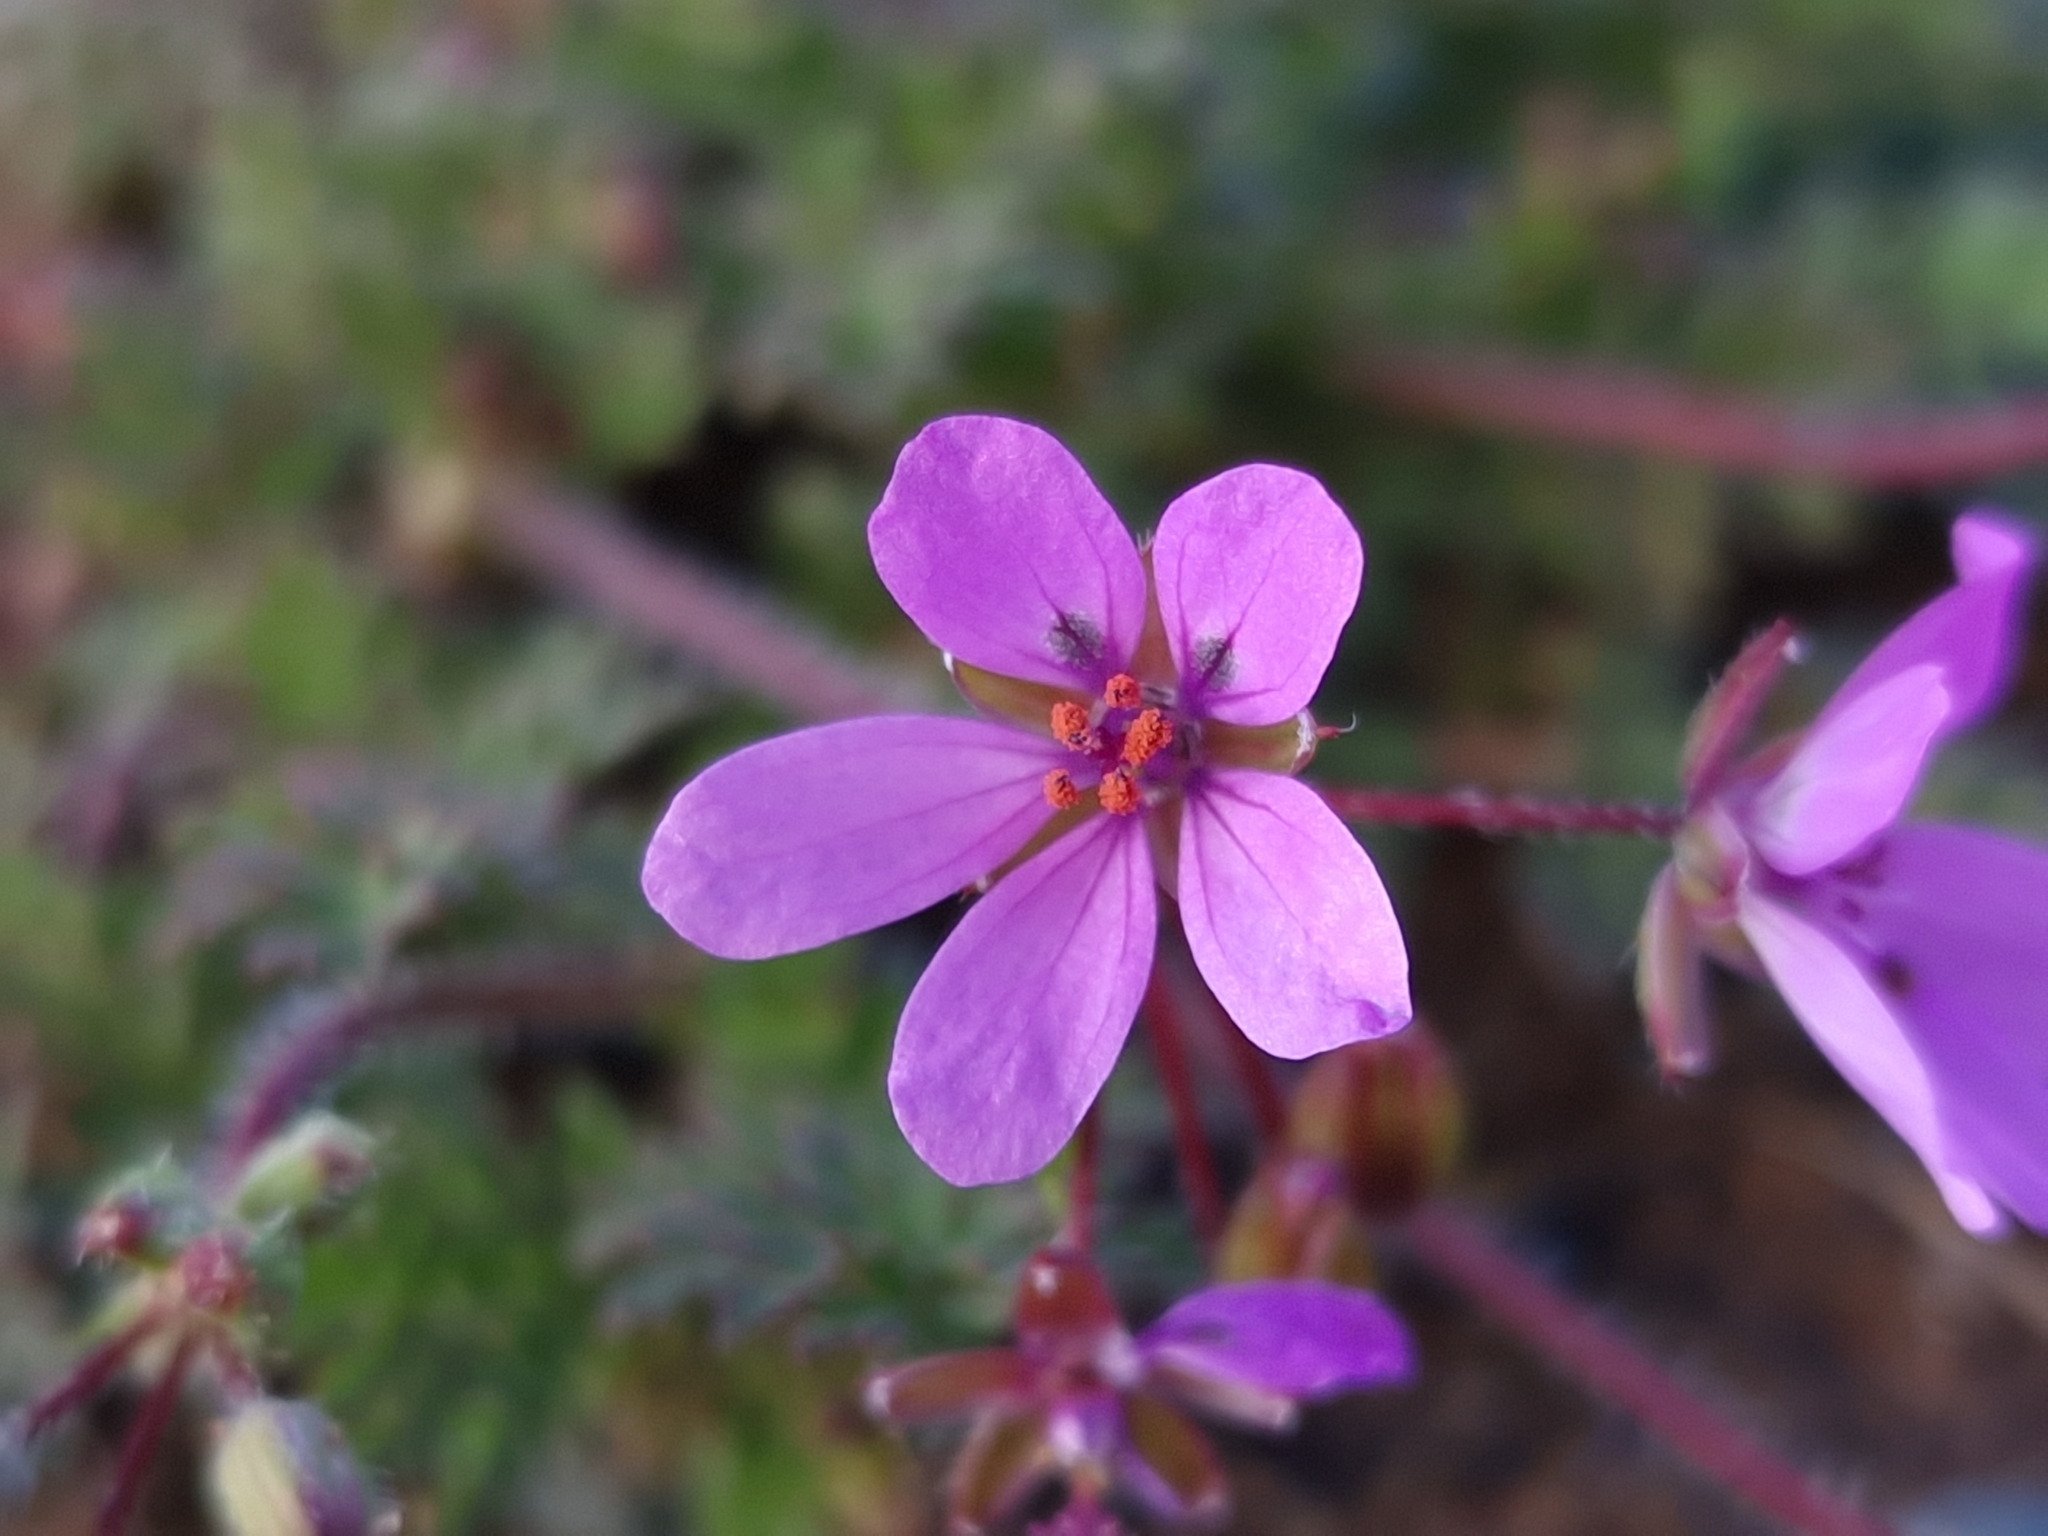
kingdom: Plantae
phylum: Tracheophyta
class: Magnoliopsida
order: Geraniales
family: Geraniaceae
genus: Erodium
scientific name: Erodium cicutarium
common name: Common stork's-bill
